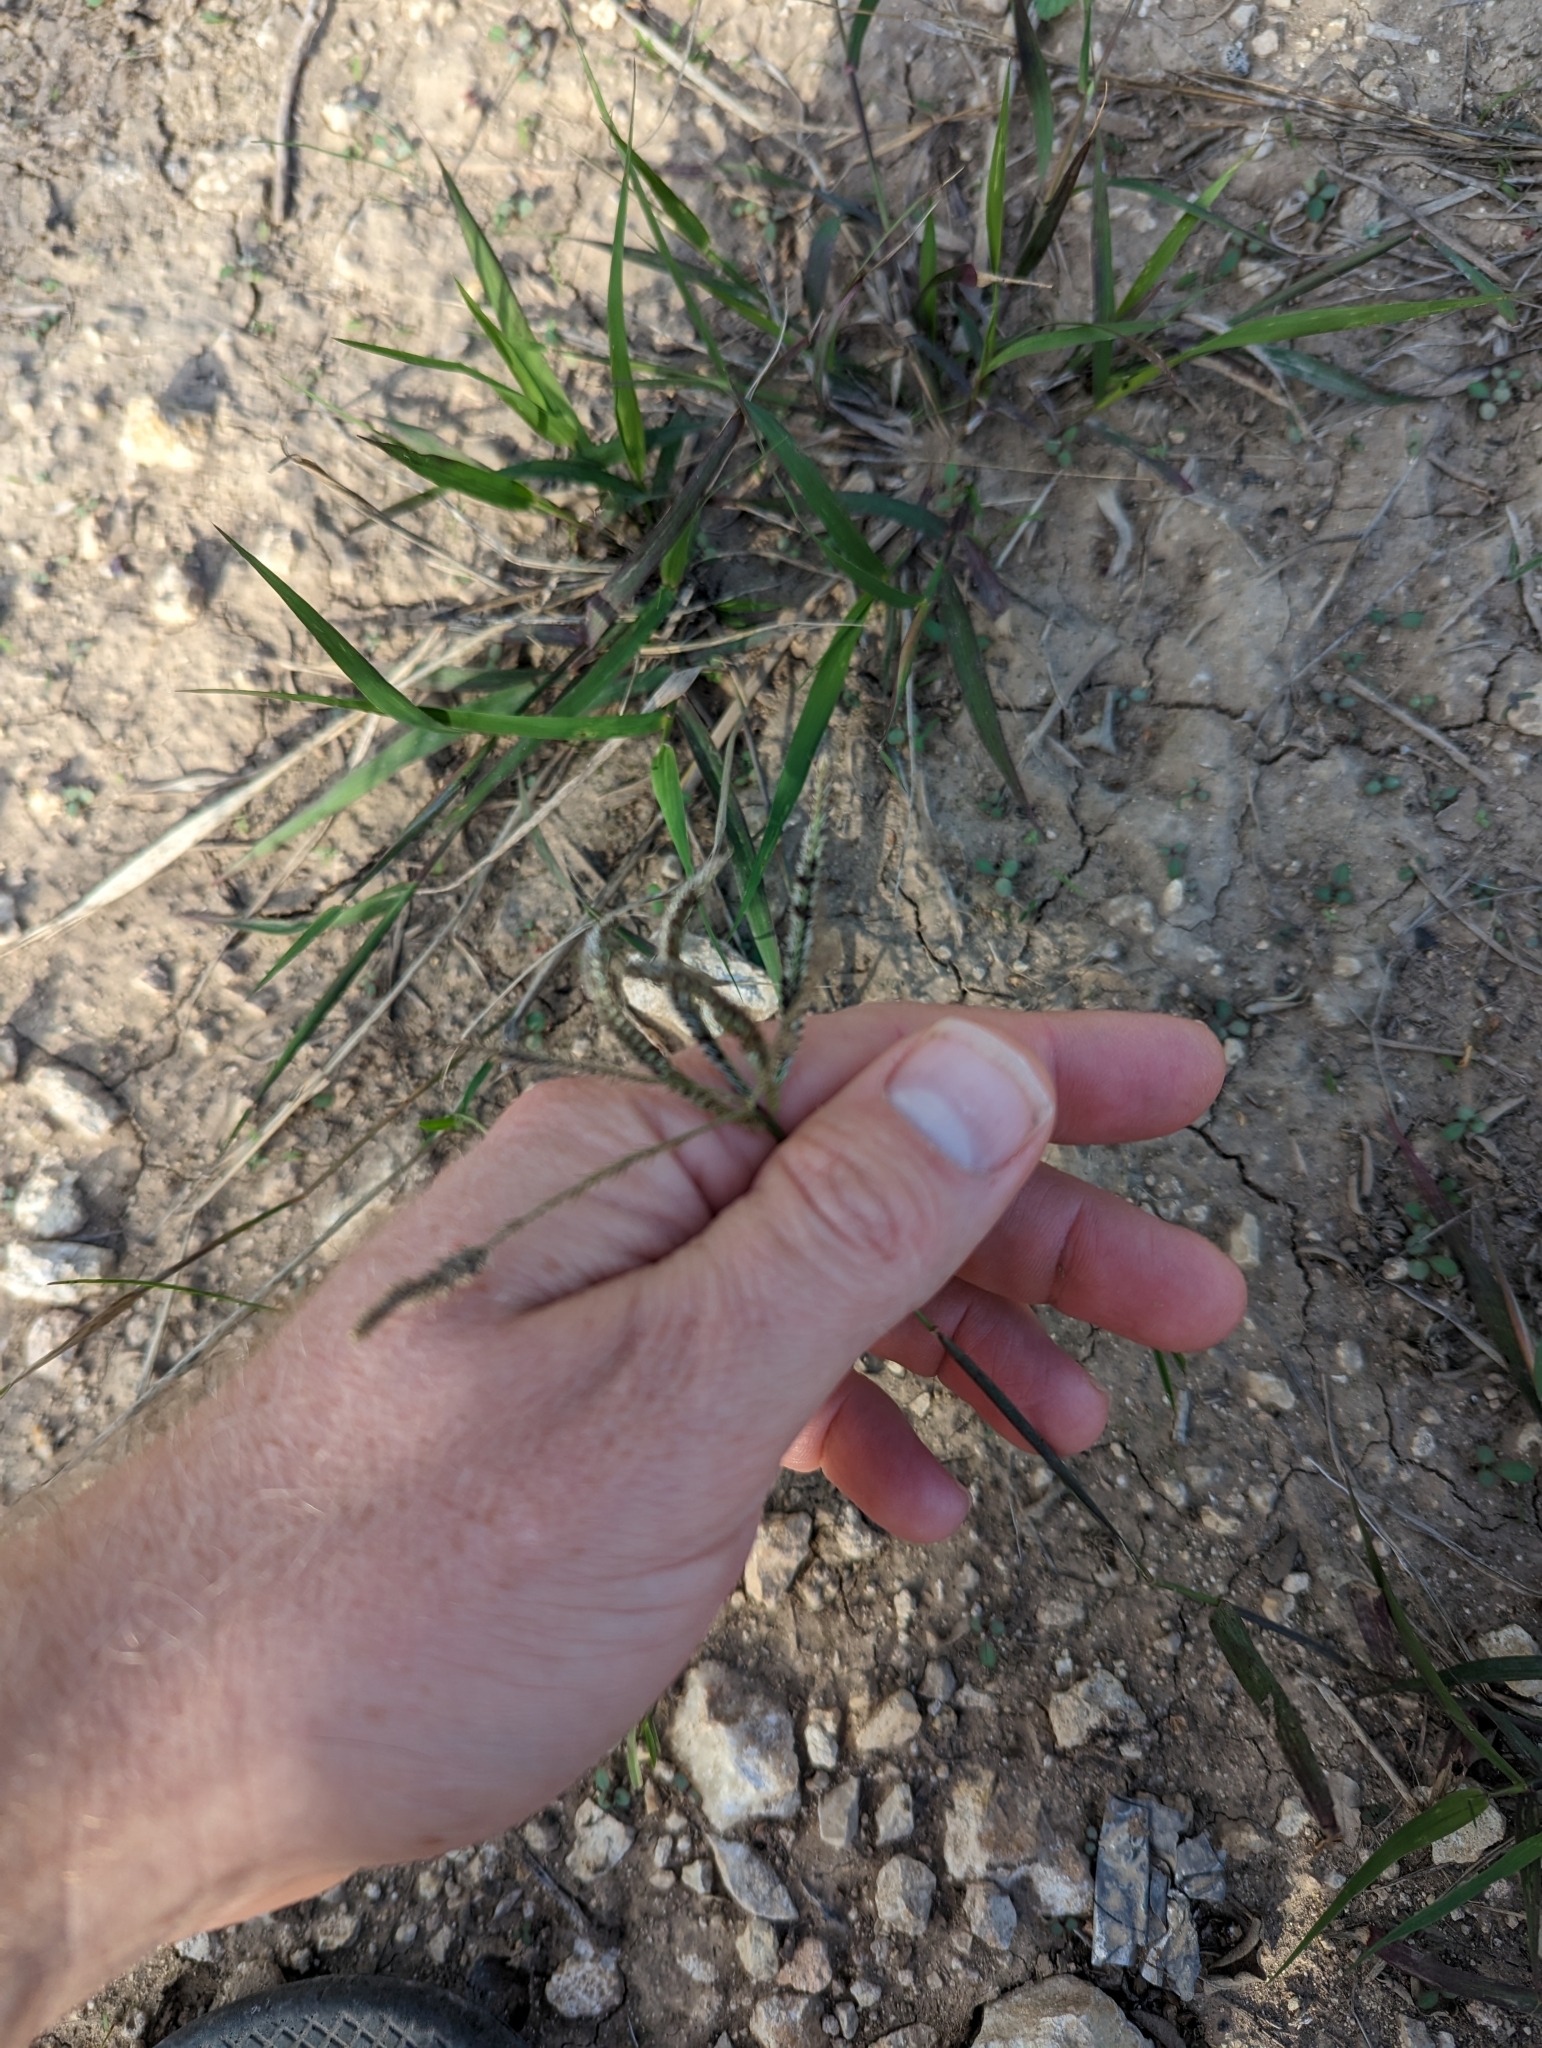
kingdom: Plantae
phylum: Tracheophyta
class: Liliopsida
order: Poales
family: Poaceae
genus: Stapfochloa
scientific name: Stapfochloa ciliata
